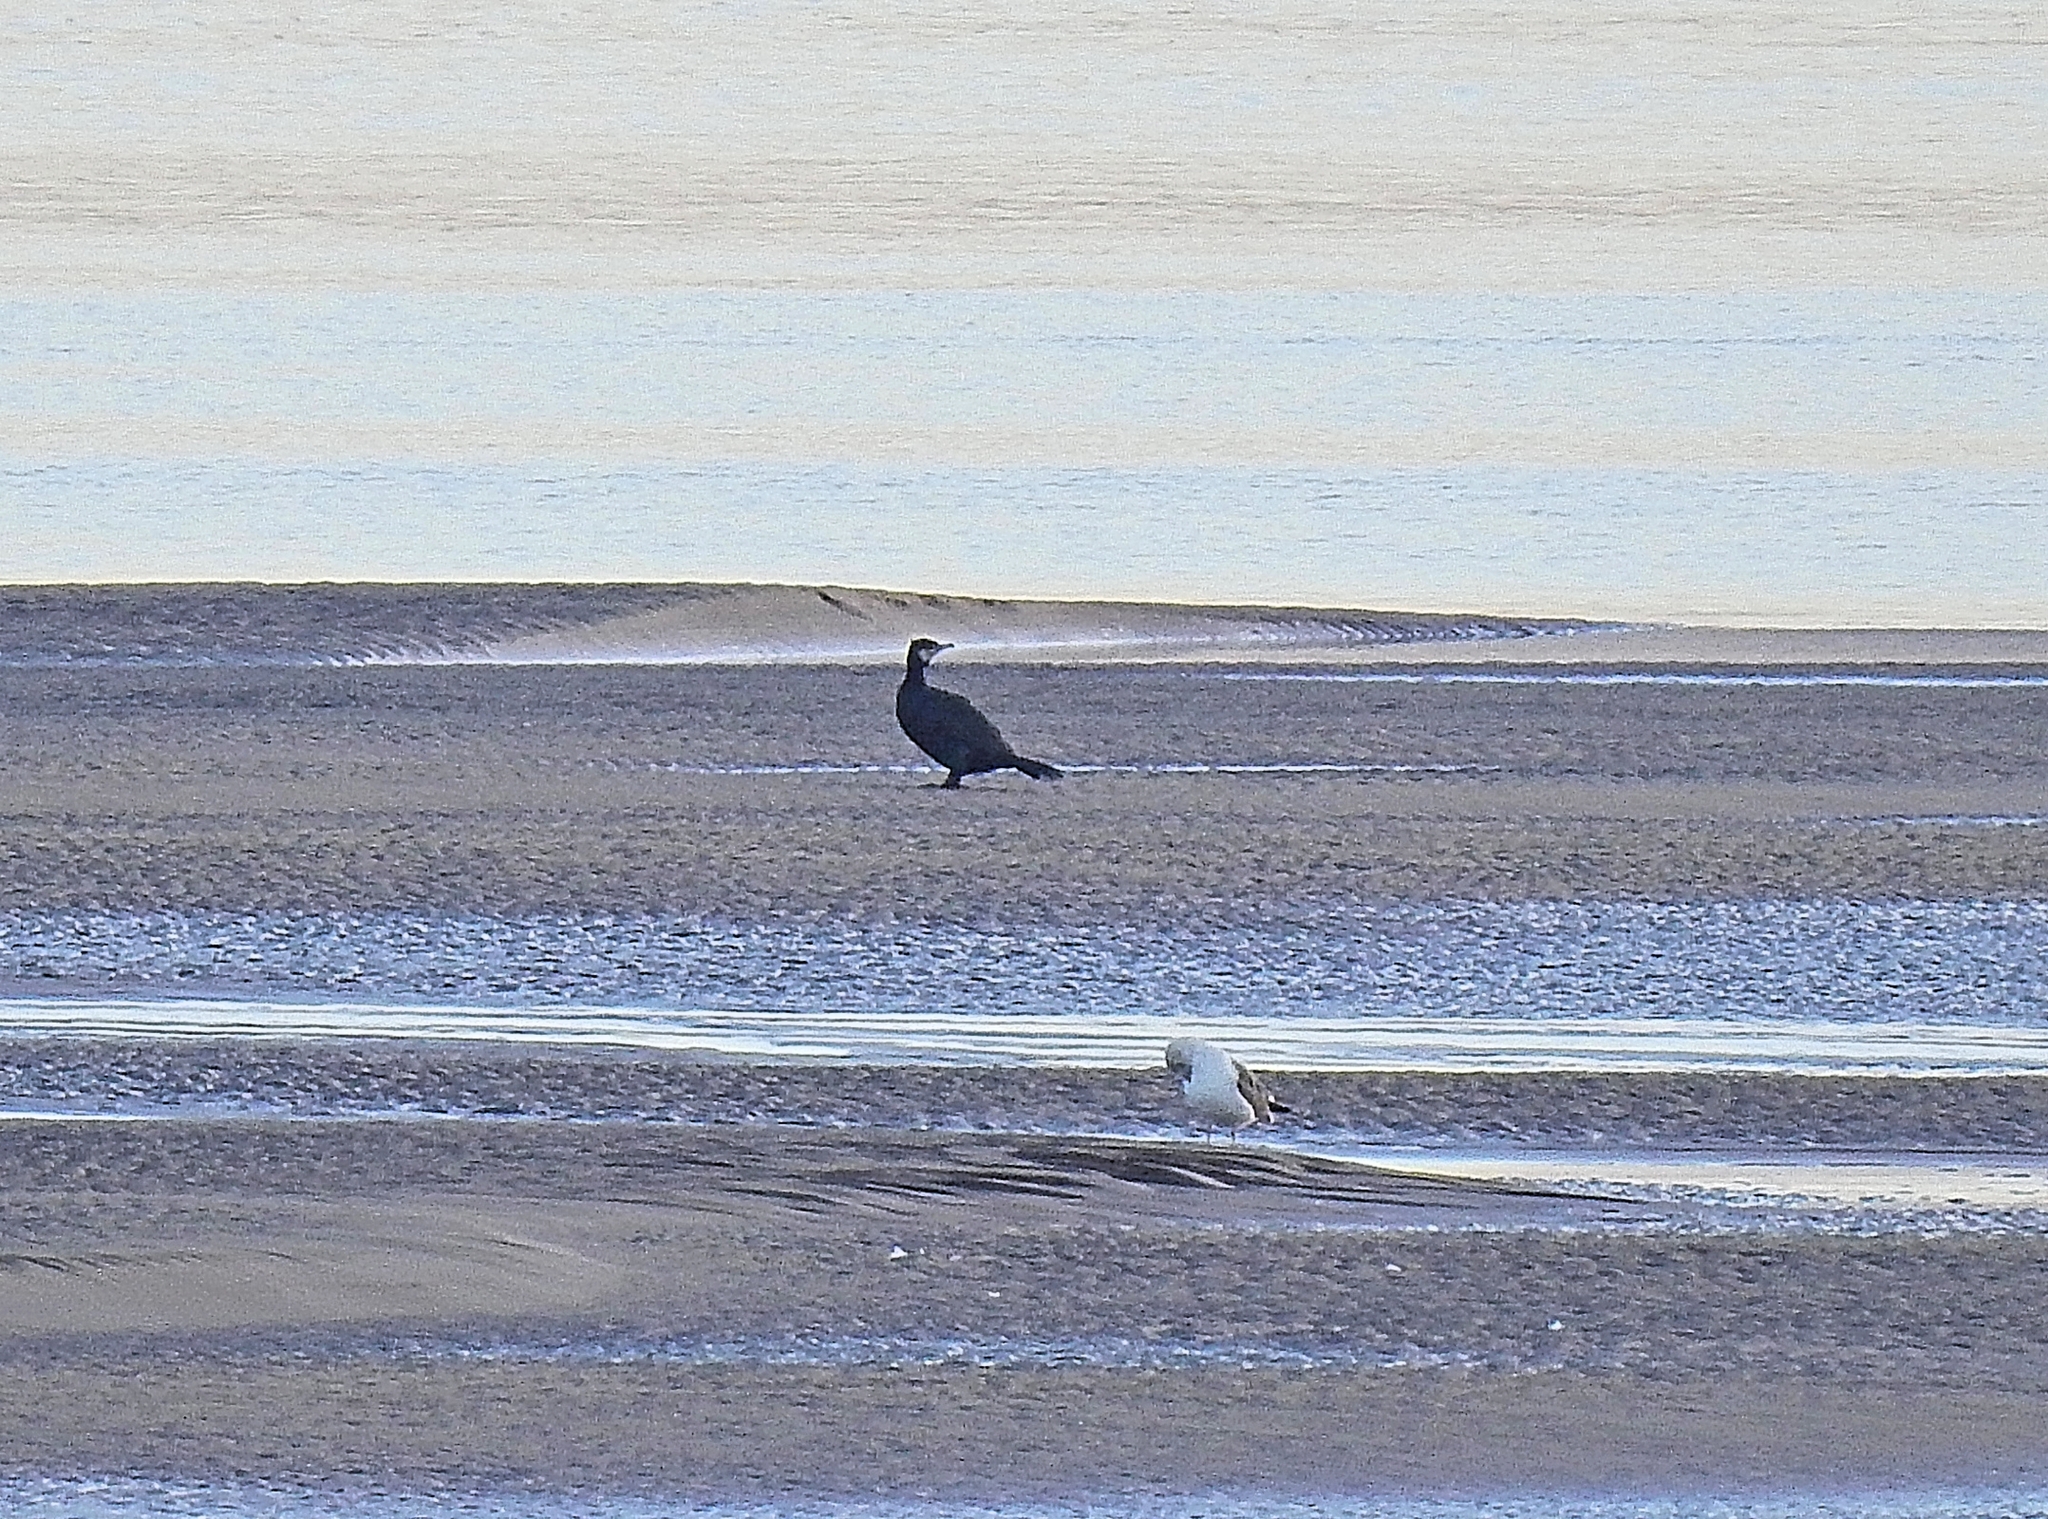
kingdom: Animalia
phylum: Chordata
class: Aves
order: Suliformes
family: Phalacrocoracidae
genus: Phalacrocorax
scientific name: Phalacrocorax carbo
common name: Great cormorant
